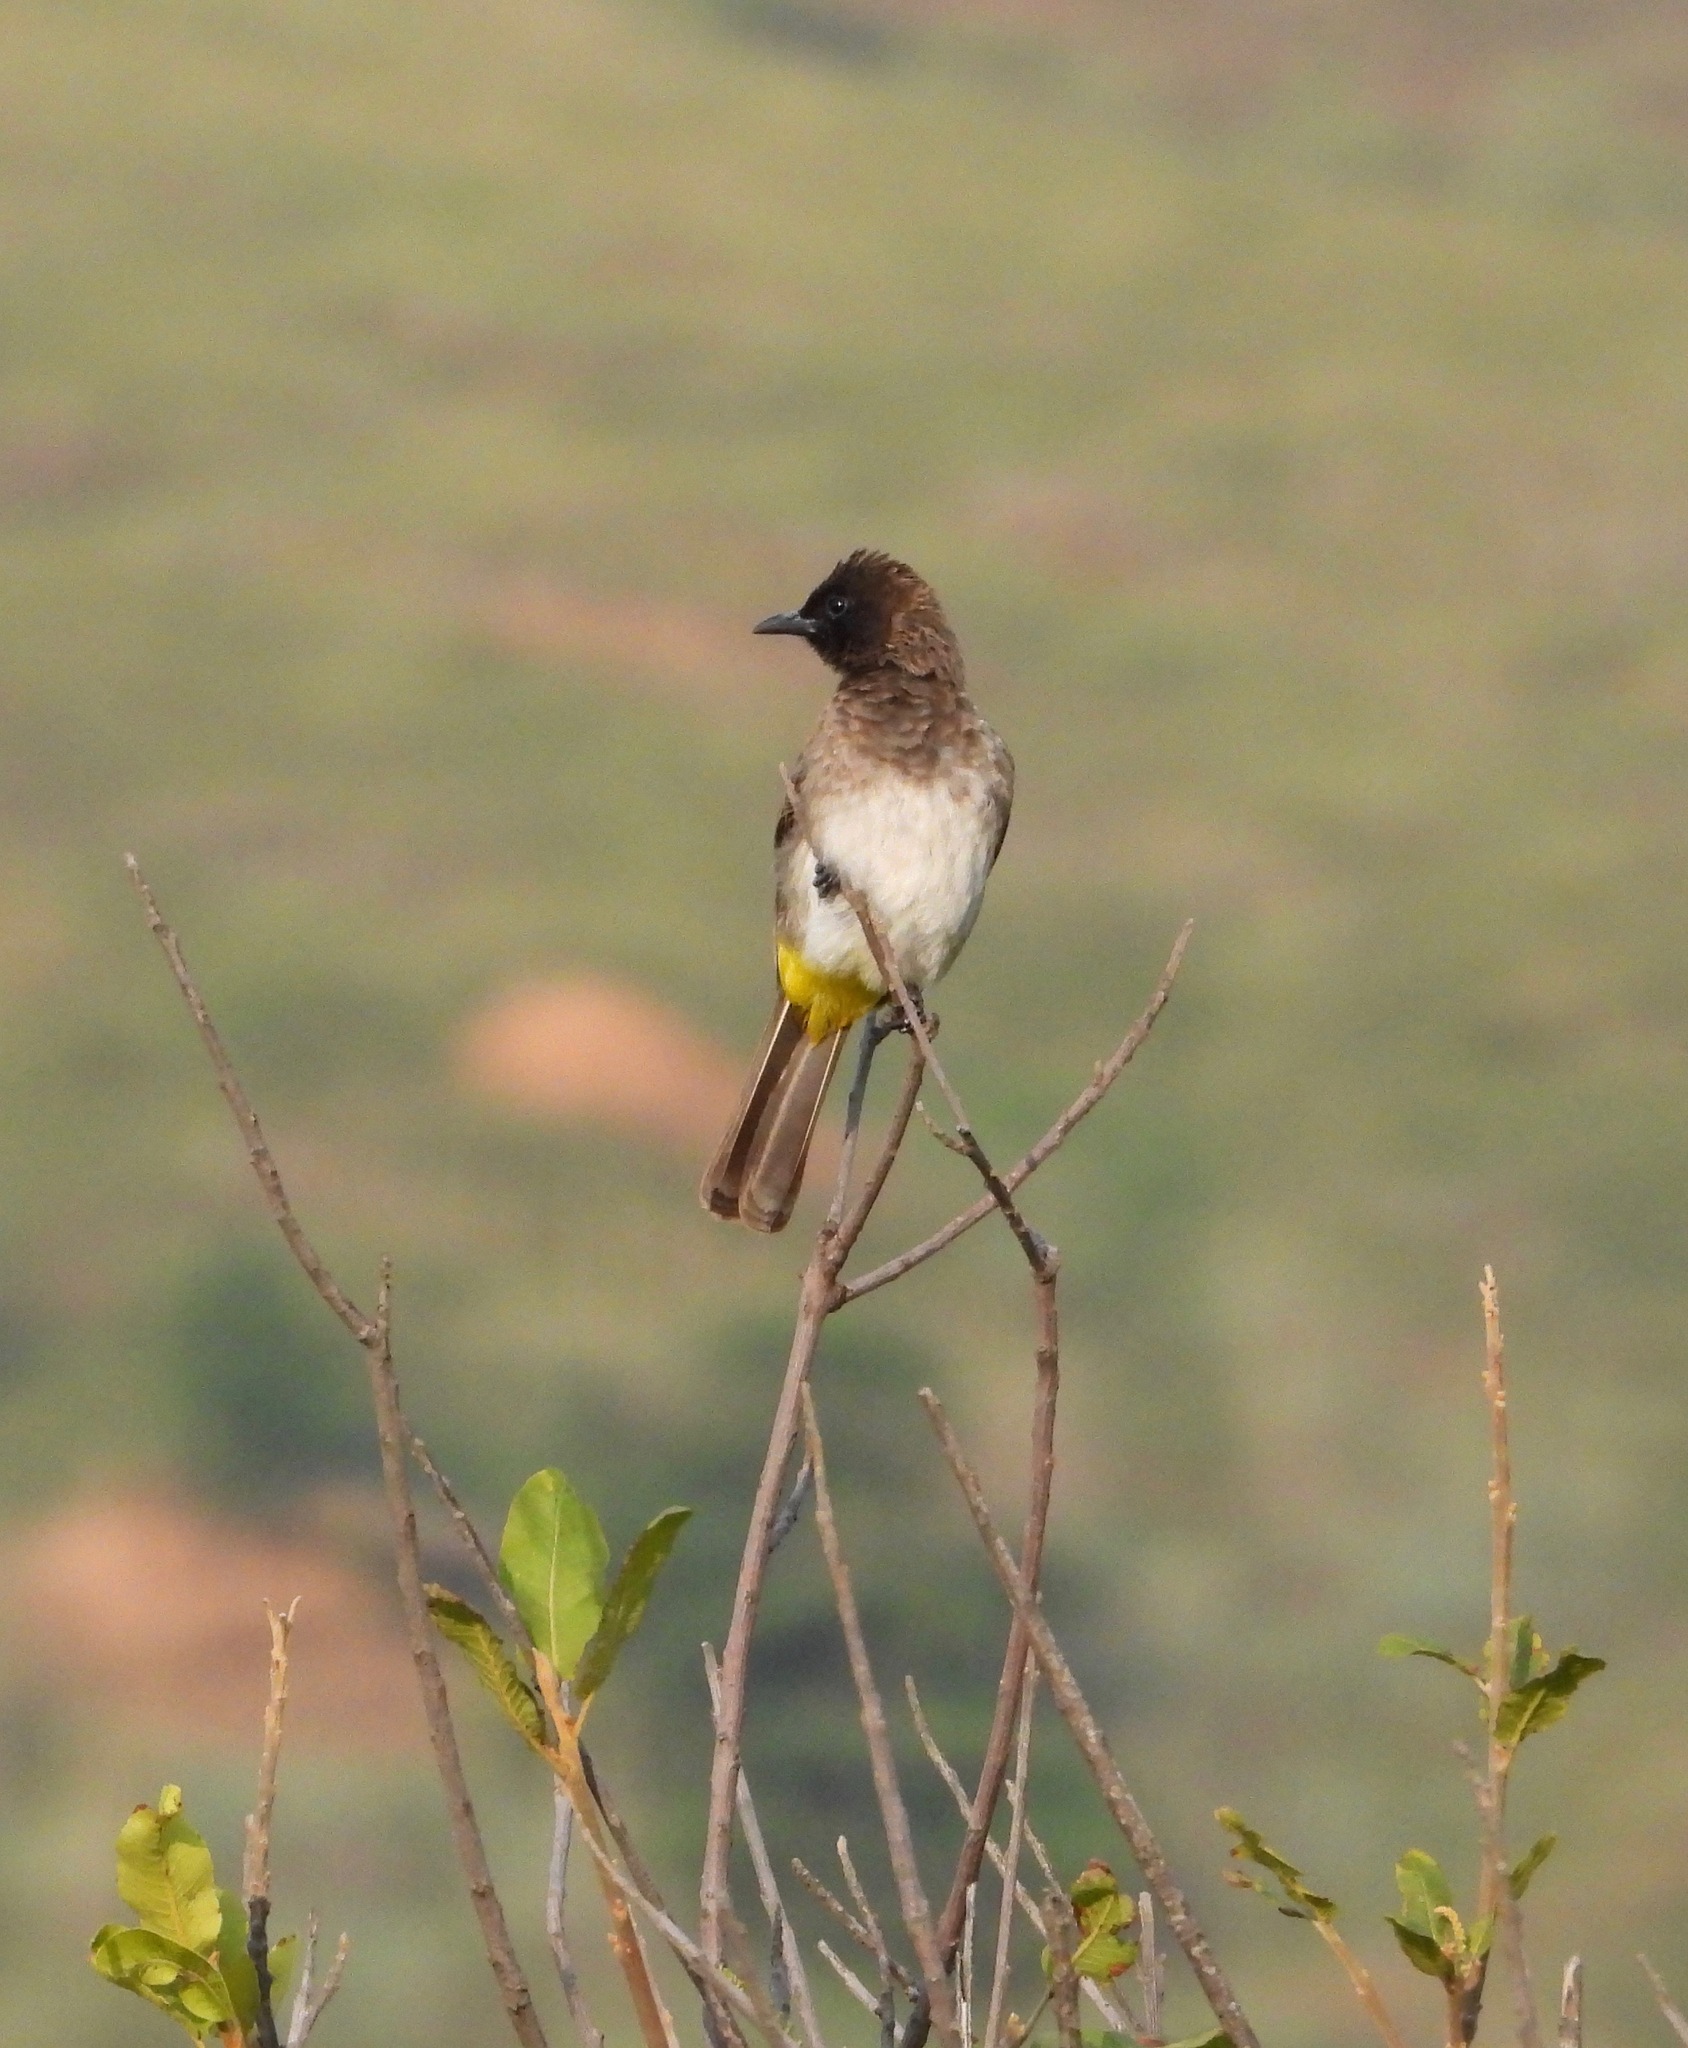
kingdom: Animalia
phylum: Chordata
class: Aves
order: Passeriformes
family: Pycnonotidae
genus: Pycnonotus
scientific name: Pycnonotus barbatus
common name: Common bulbul
